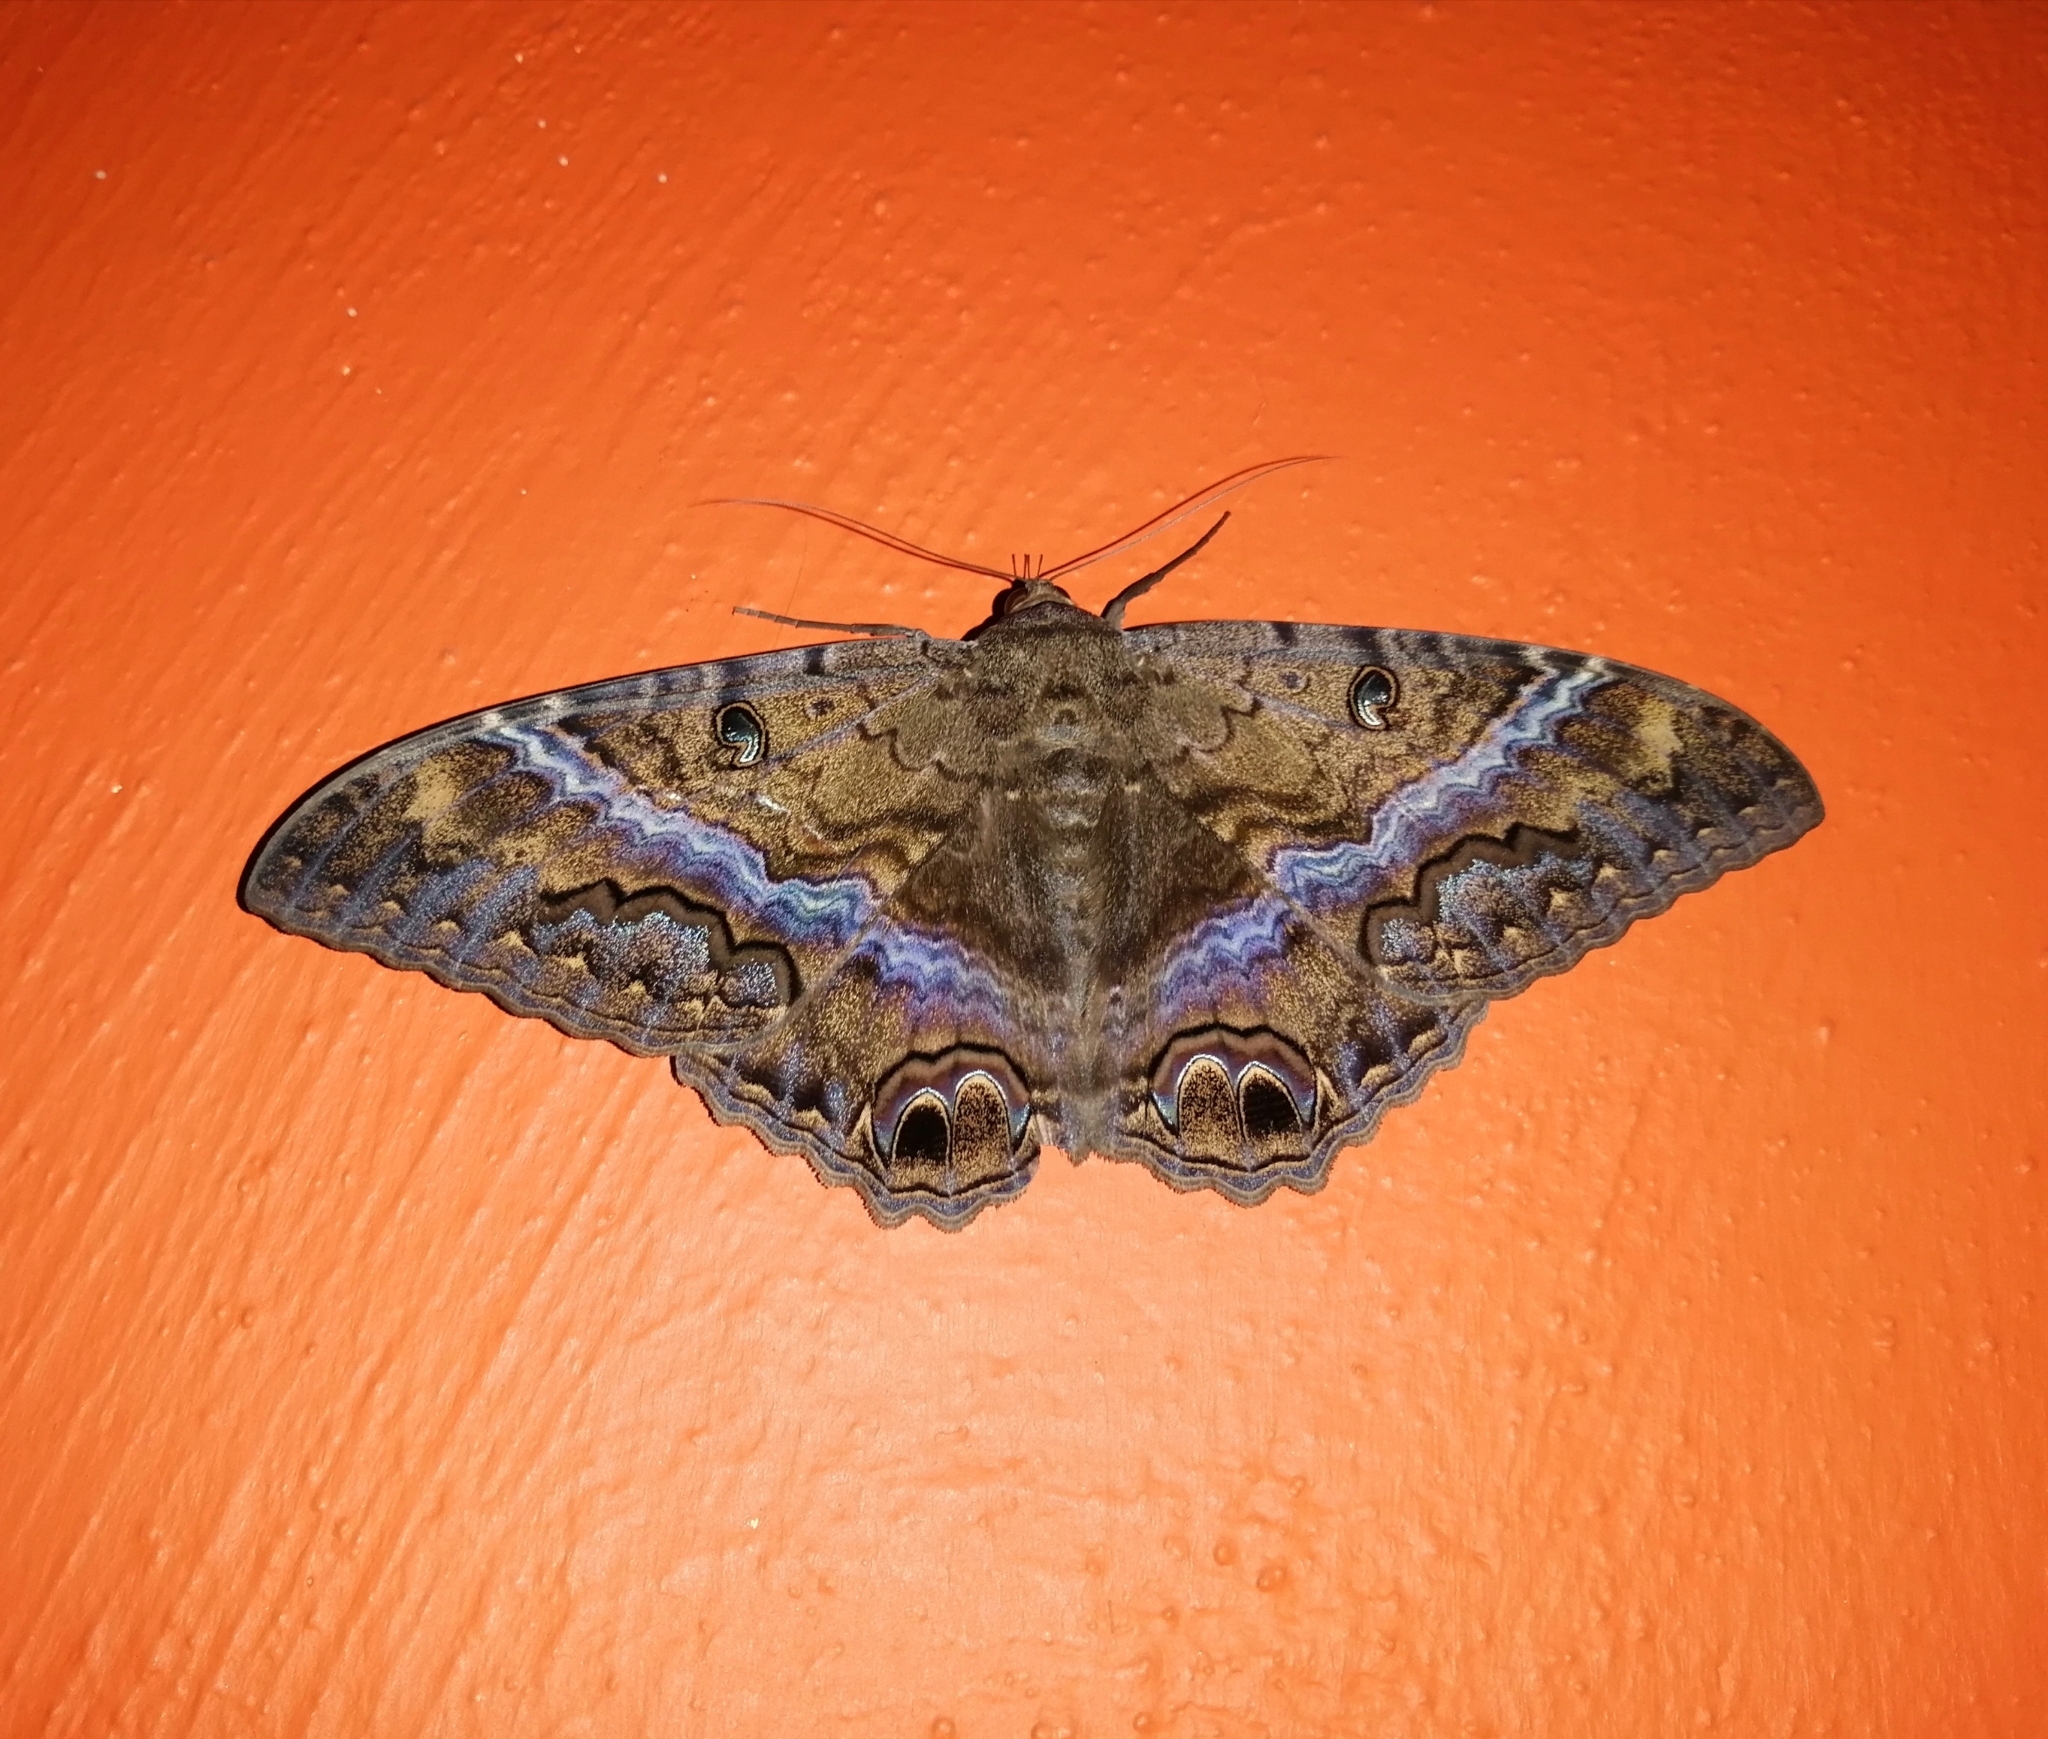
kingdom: Animalia
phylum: Arthropoda
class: Insecta
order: Lepidoptera
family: Erebidae
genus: Ascalapha
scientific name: Ascalapha odorata
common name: Black witch
